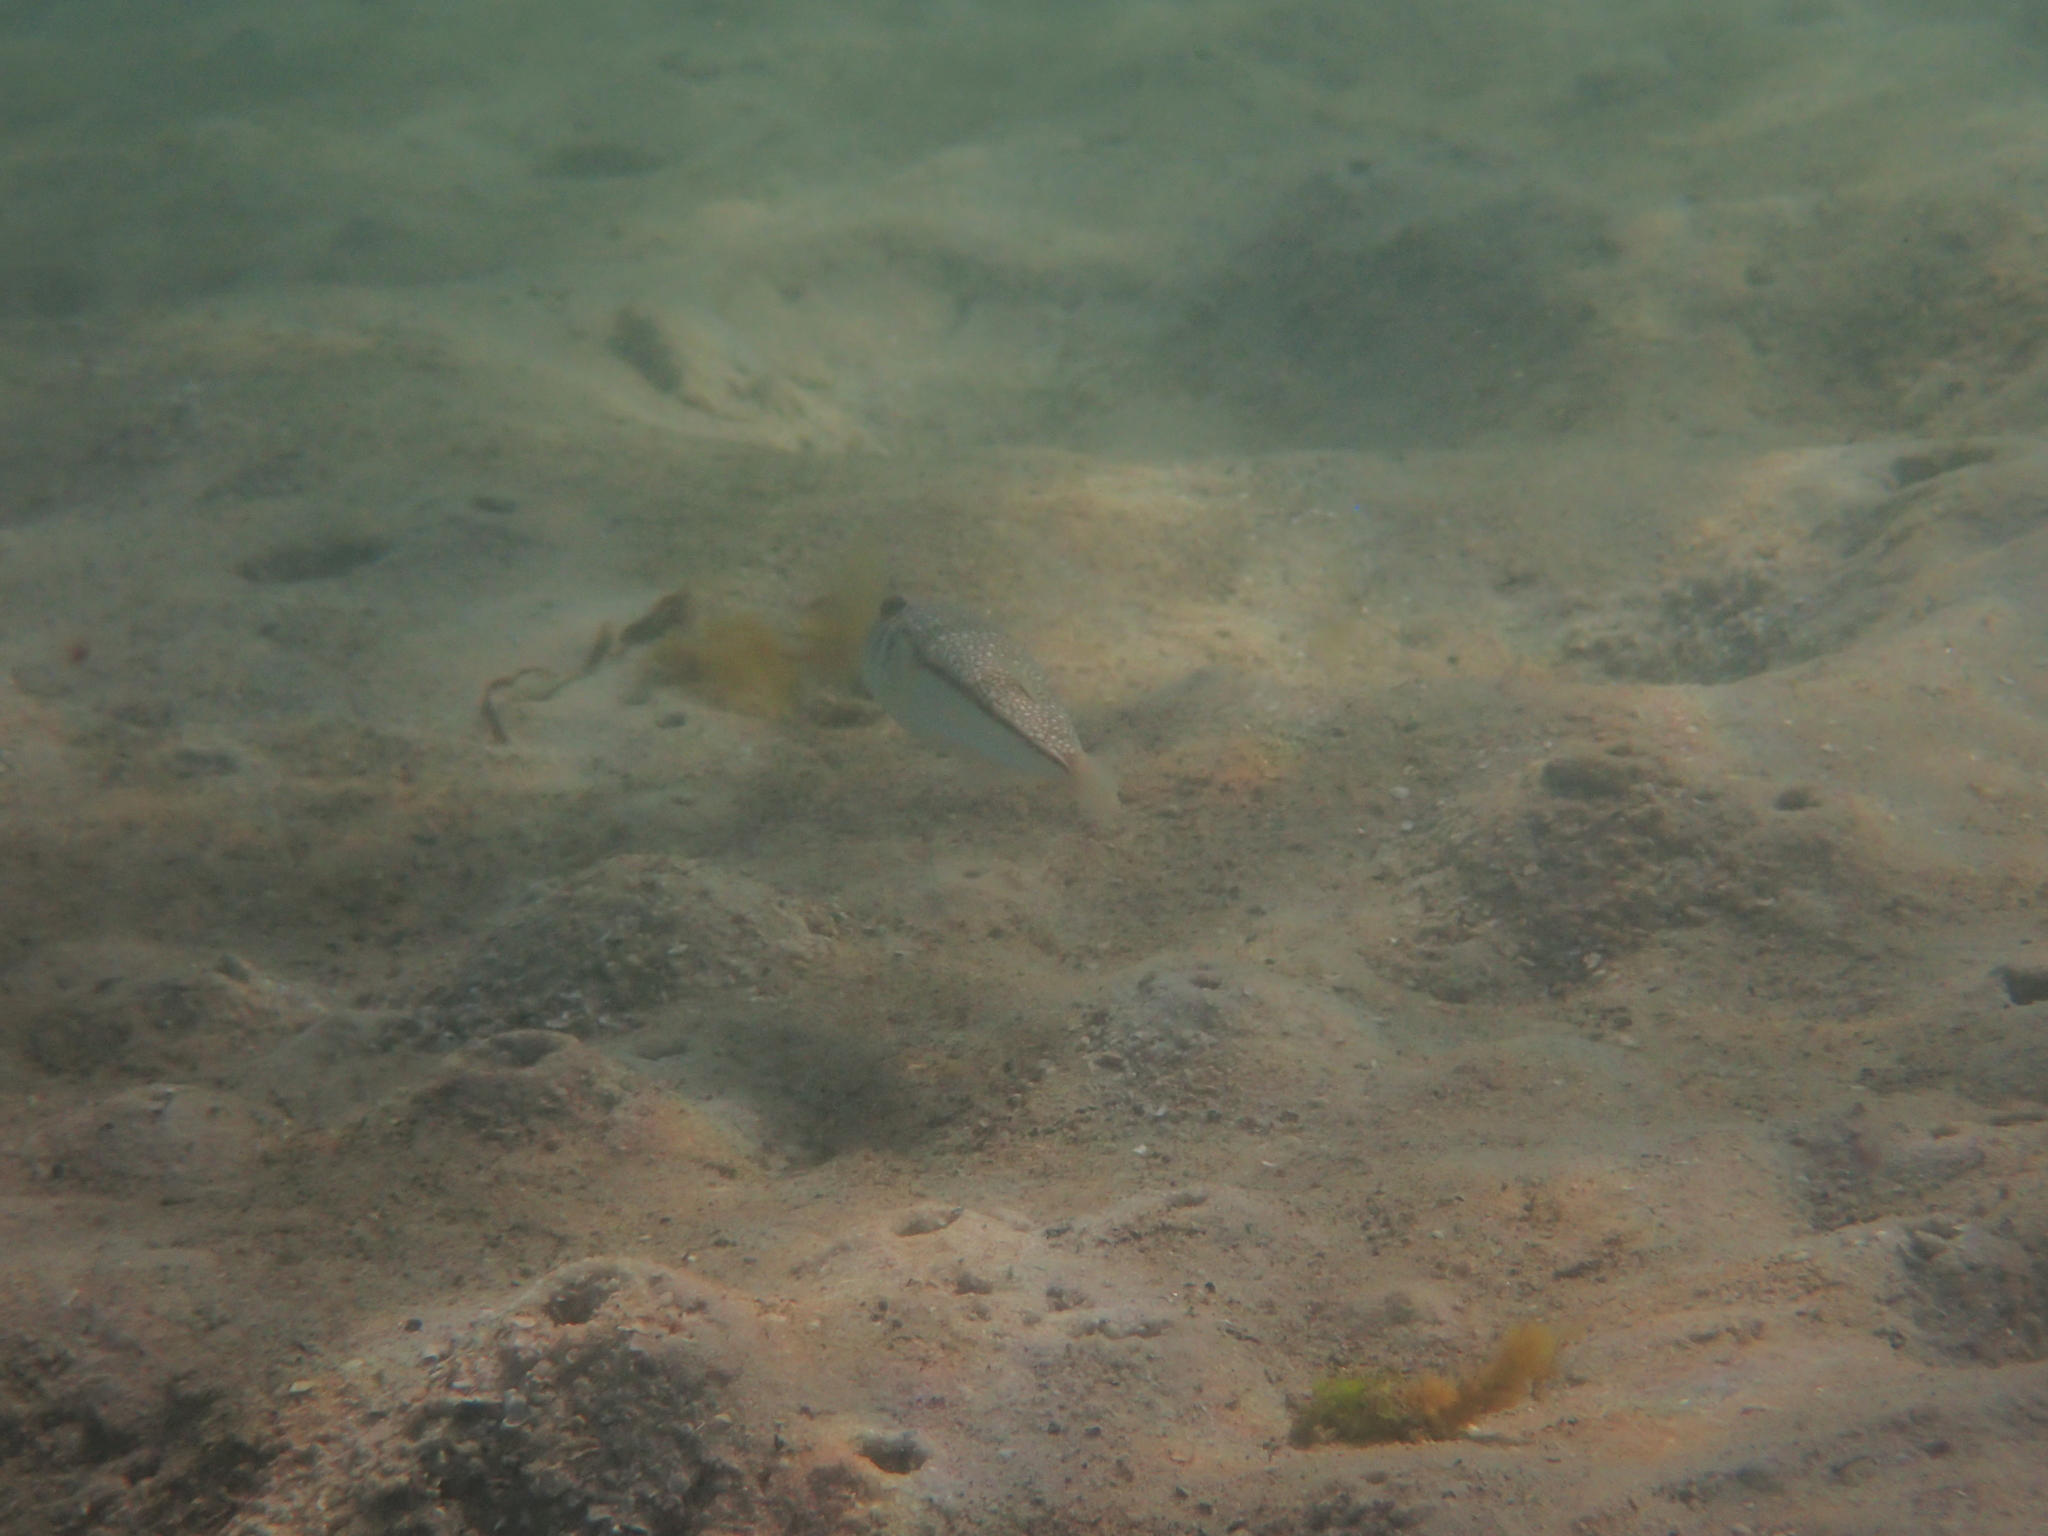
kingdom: Animalia
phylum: Chordata
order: Tetraodontiformes
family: Tetraodontidae
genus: Torquigener
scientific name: Torquigener pleurogramma
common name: Banded toadfish
